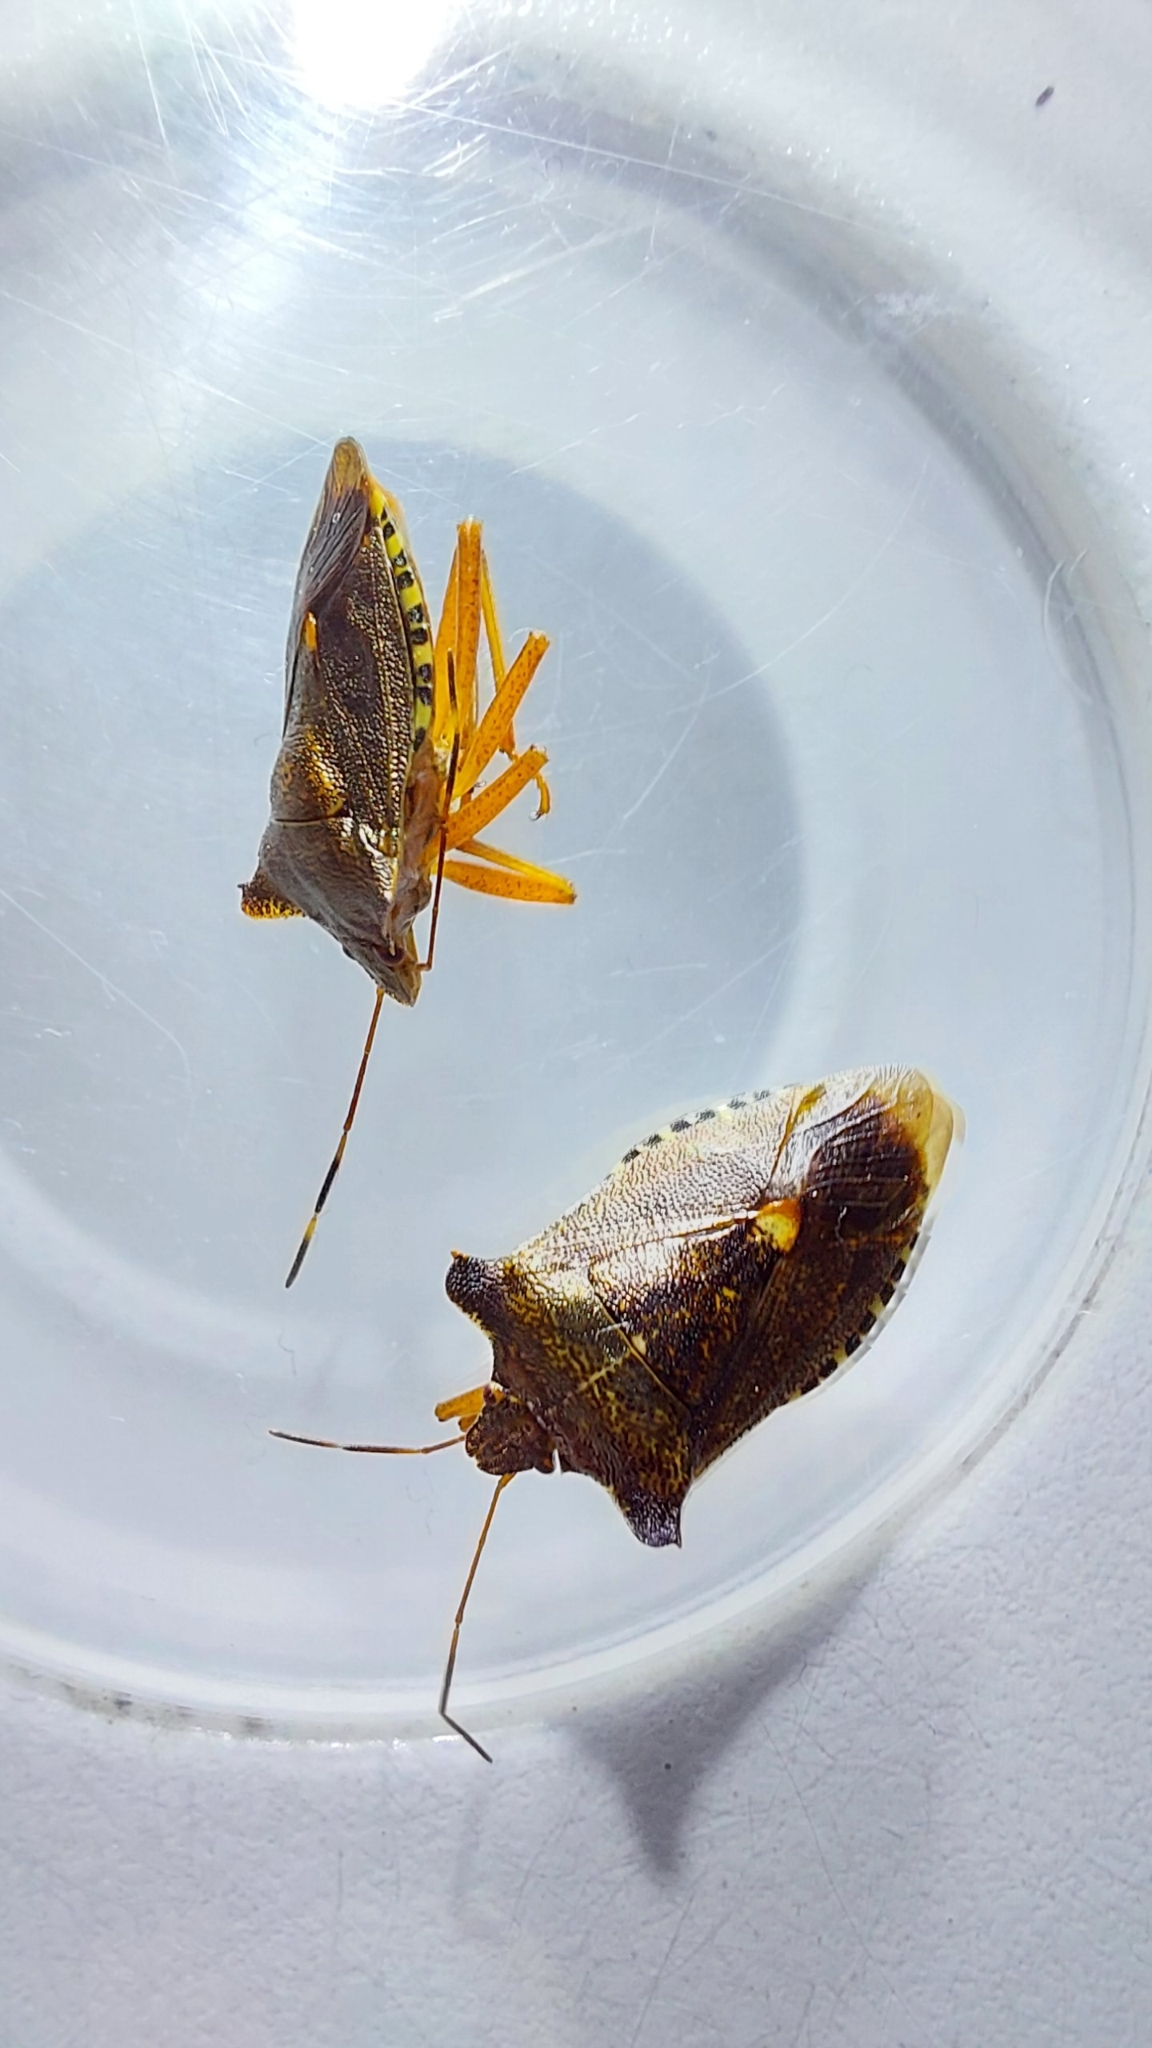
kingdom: Animalia
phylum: Arthropoda
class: Insecta
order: Hemiptera
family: Pentatomidae
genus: Pentatoma
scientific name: Pentatoma rufipes
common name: Forest bug
